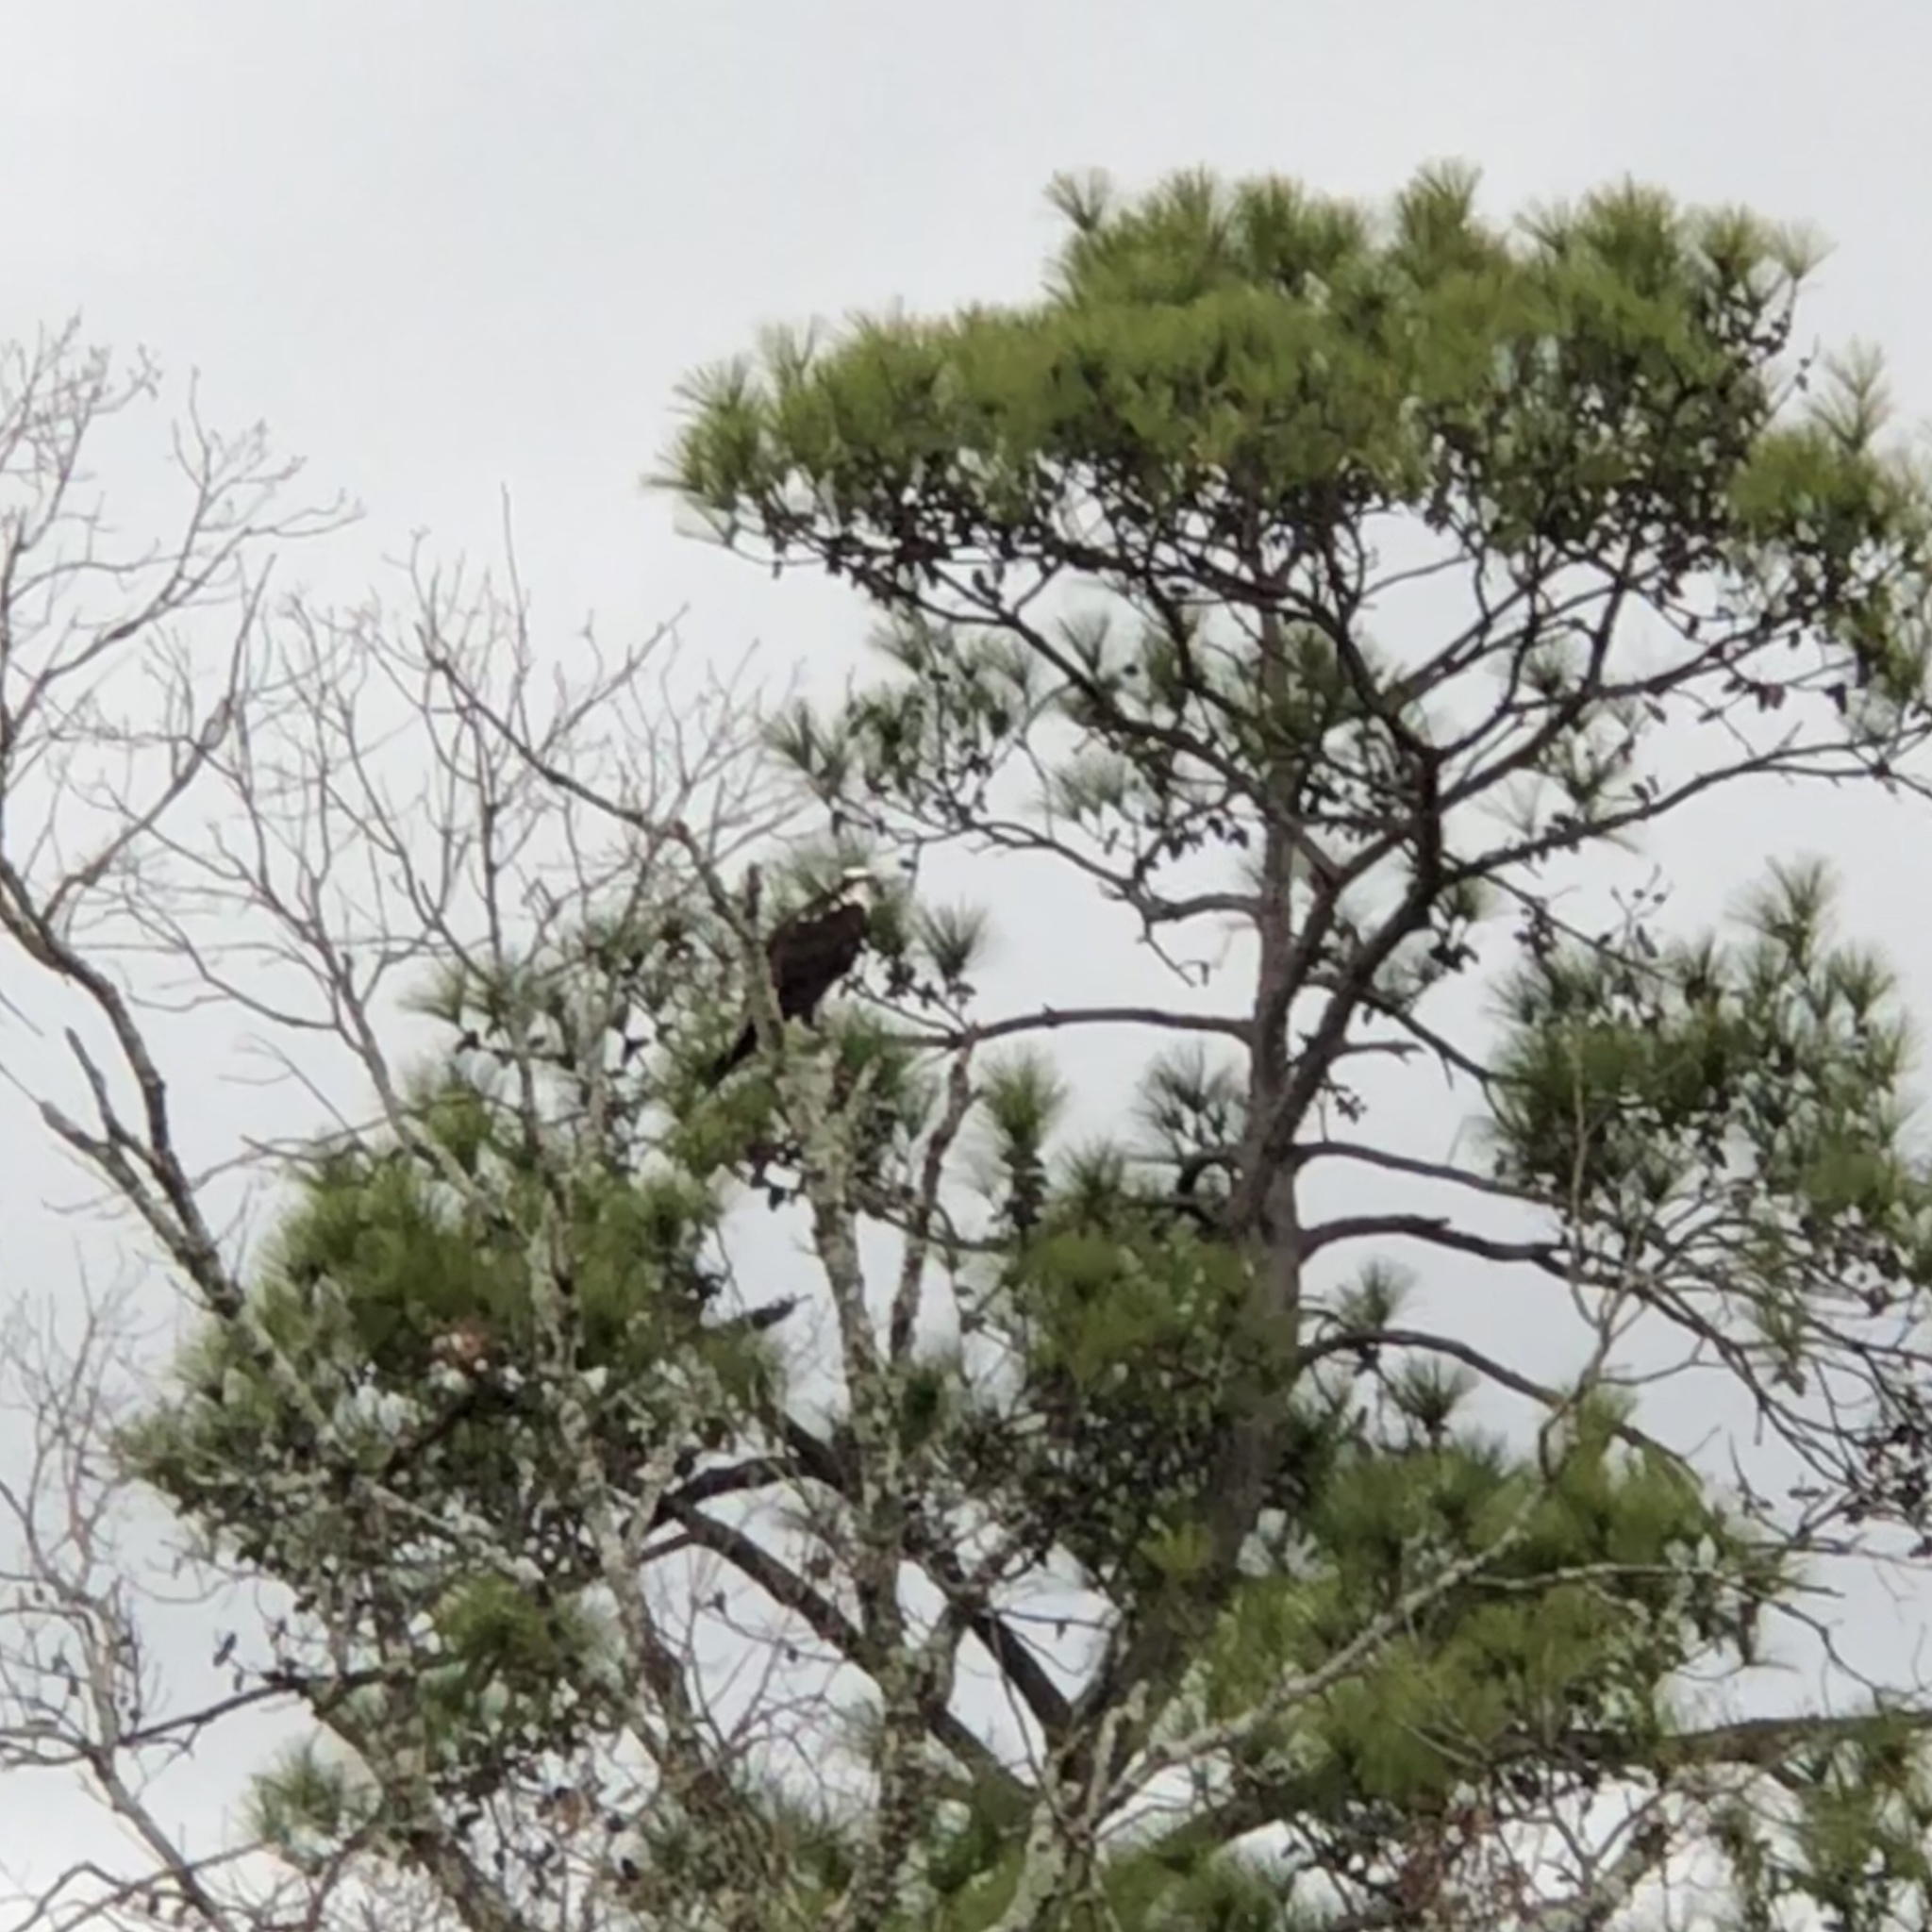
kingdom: Animalia
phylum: Chordata
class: Aves
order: Accipitriformes
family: Pandionidae
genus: Pandion
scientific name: Pandion haliaetus
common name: Osprey
